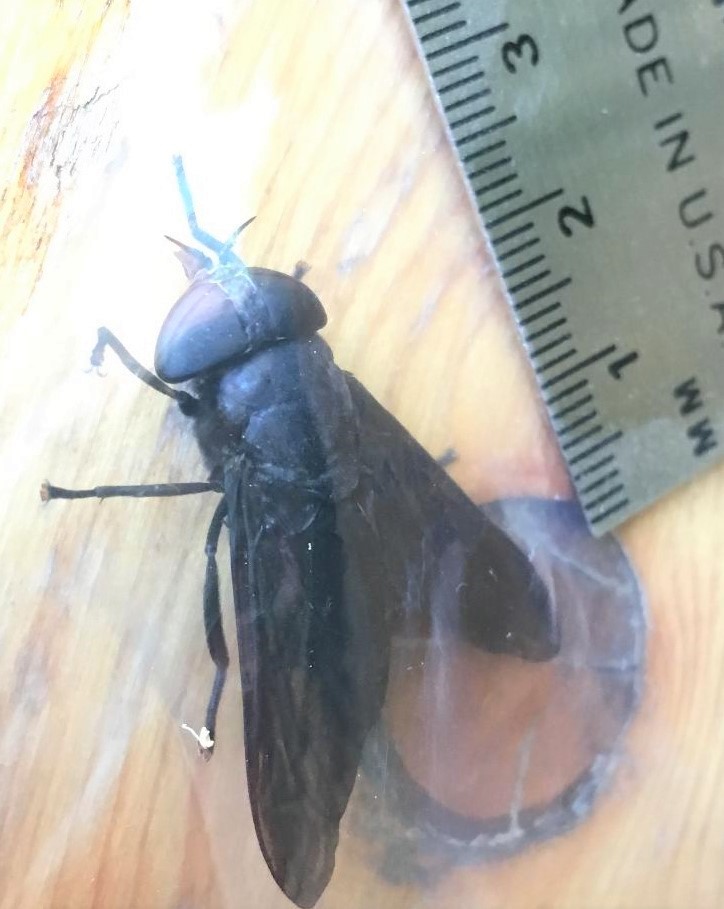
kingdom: Animalia
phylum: Arthropoda
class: Insecta
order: Diptera
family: Tabanidae
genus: Tabanus
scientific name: Tabanus atratus
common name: Black horse fly
